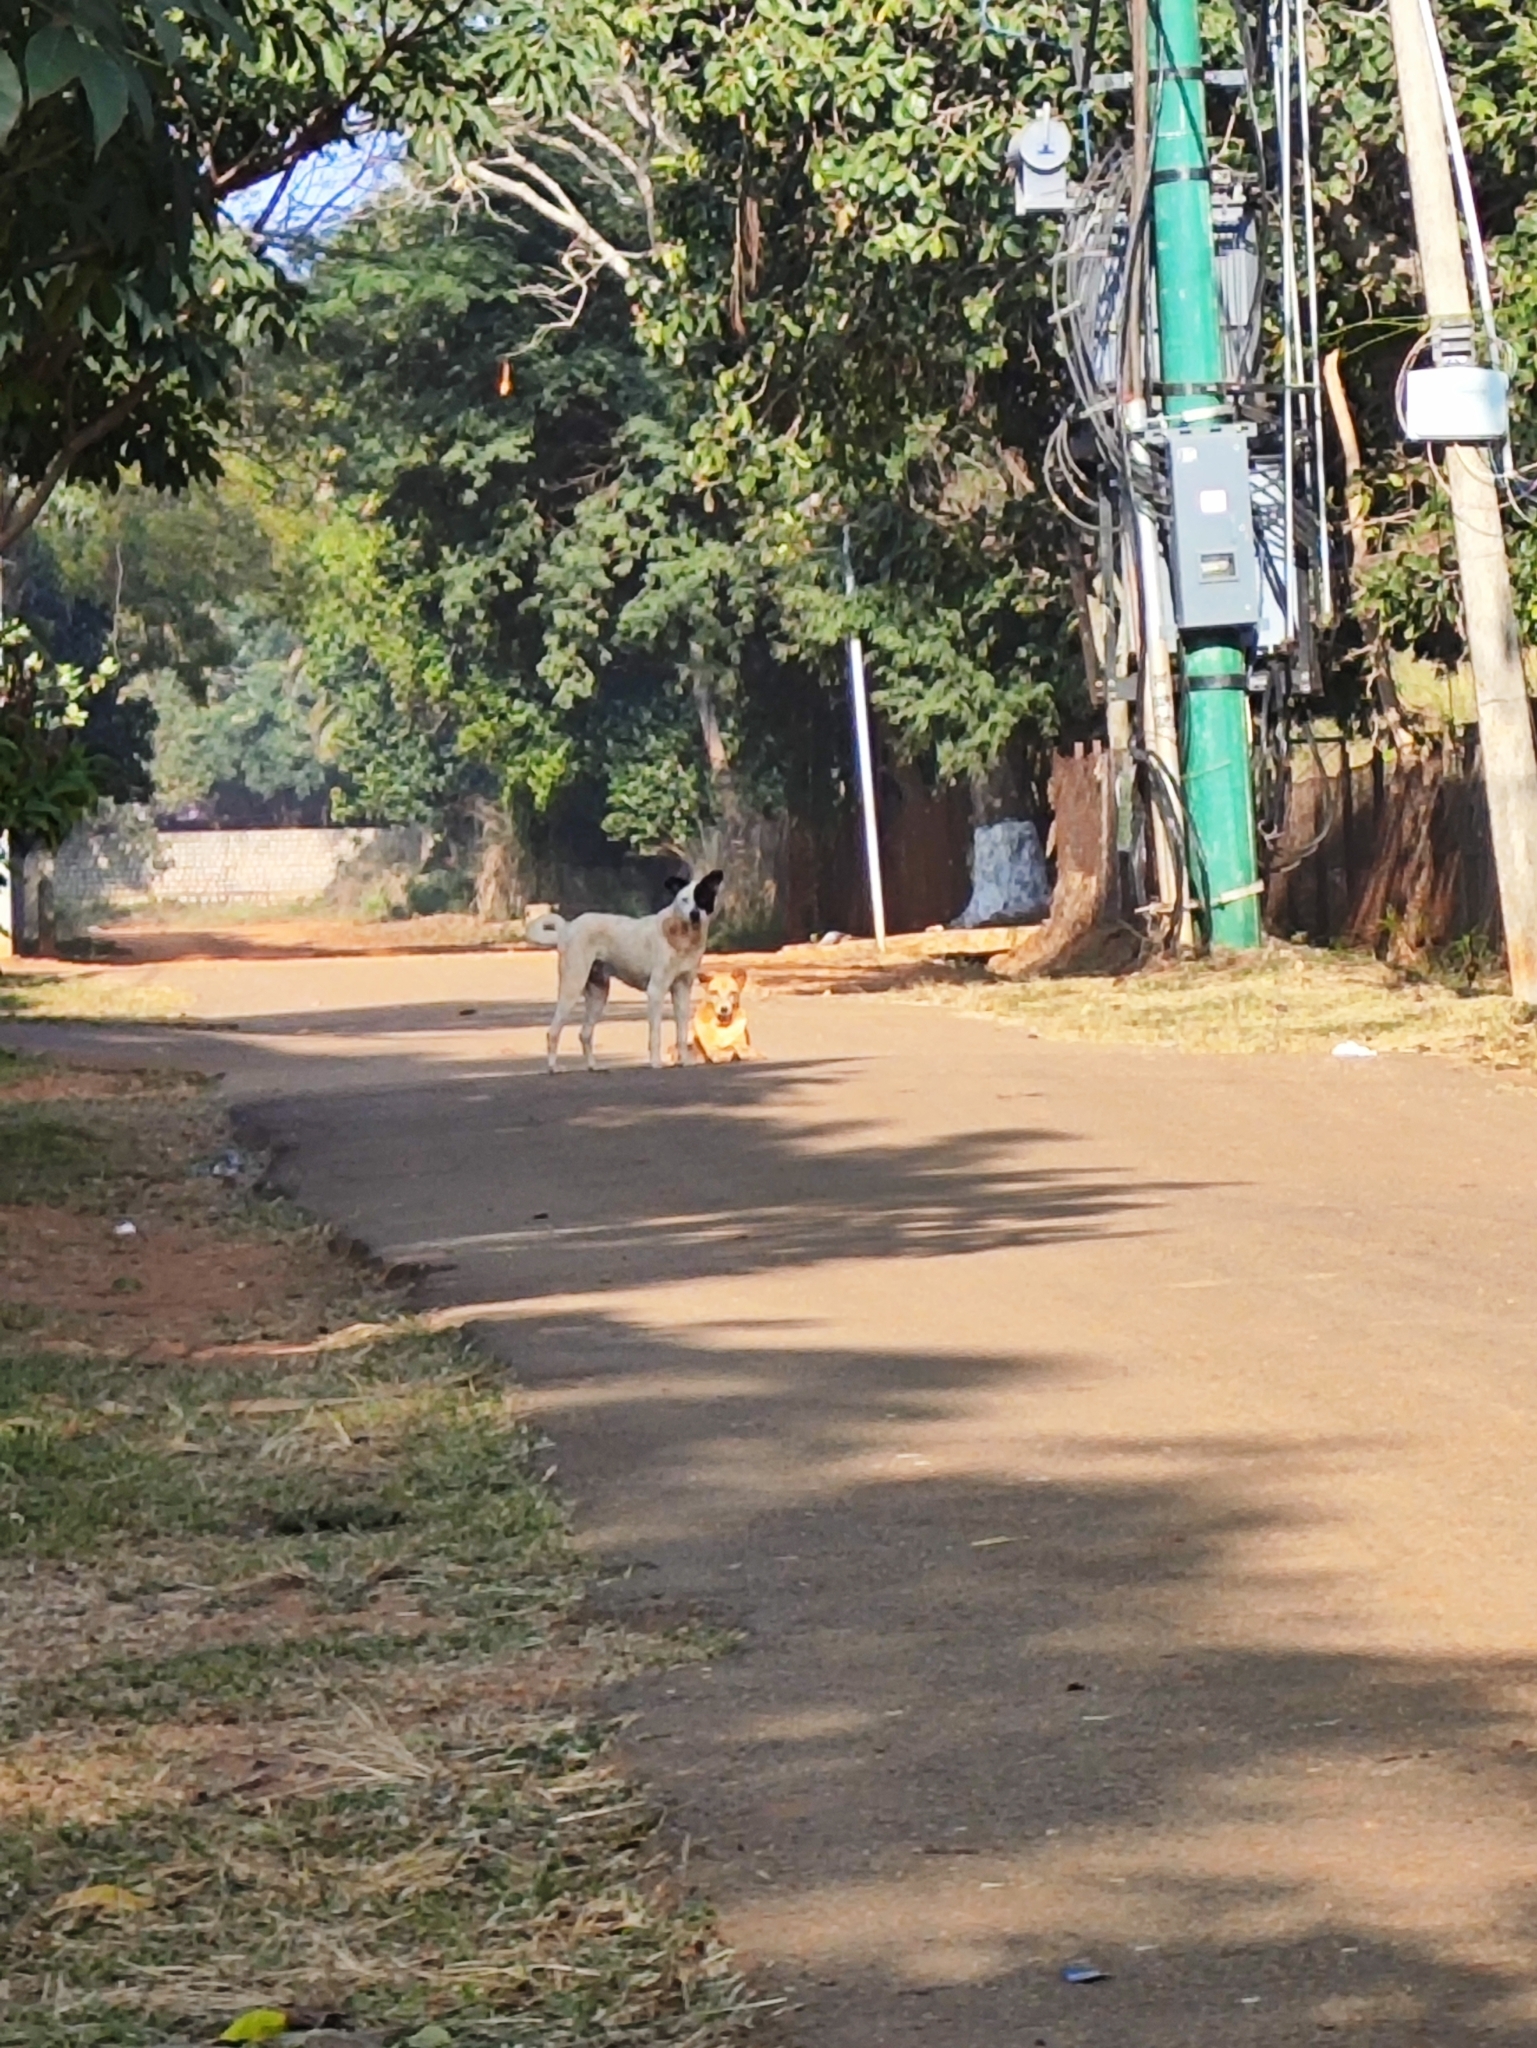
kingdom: Animalia
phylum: Chordata
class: Mammalia
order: Carnivora
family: Canidae
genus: Canis
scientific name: Canis lupus
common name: Gray wolf
